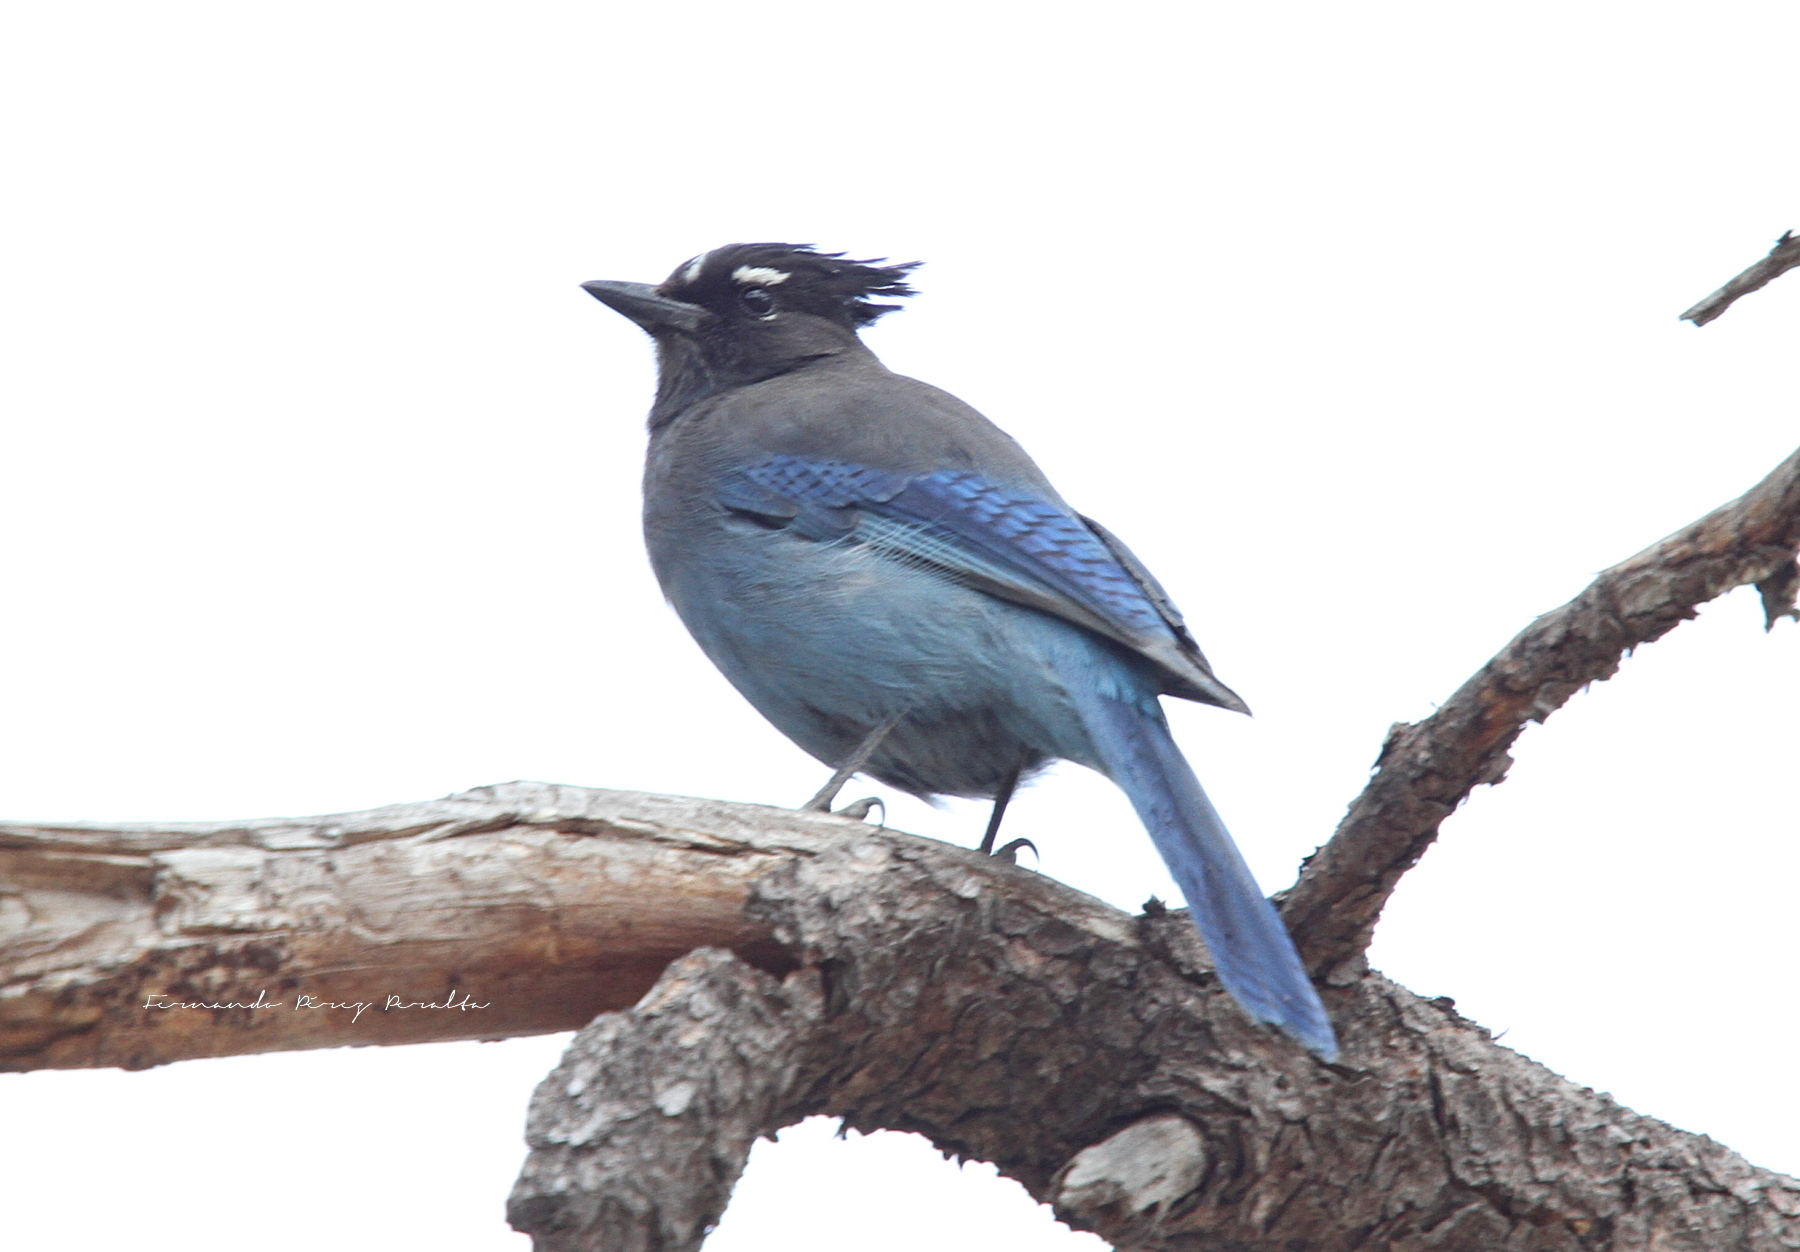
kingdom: Animalia
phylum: Chordata
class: Aves
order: Passeriformes
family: Corvidae
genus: Cyanocitta
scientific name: Cyanocitta stelleri
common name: Steller's jay
